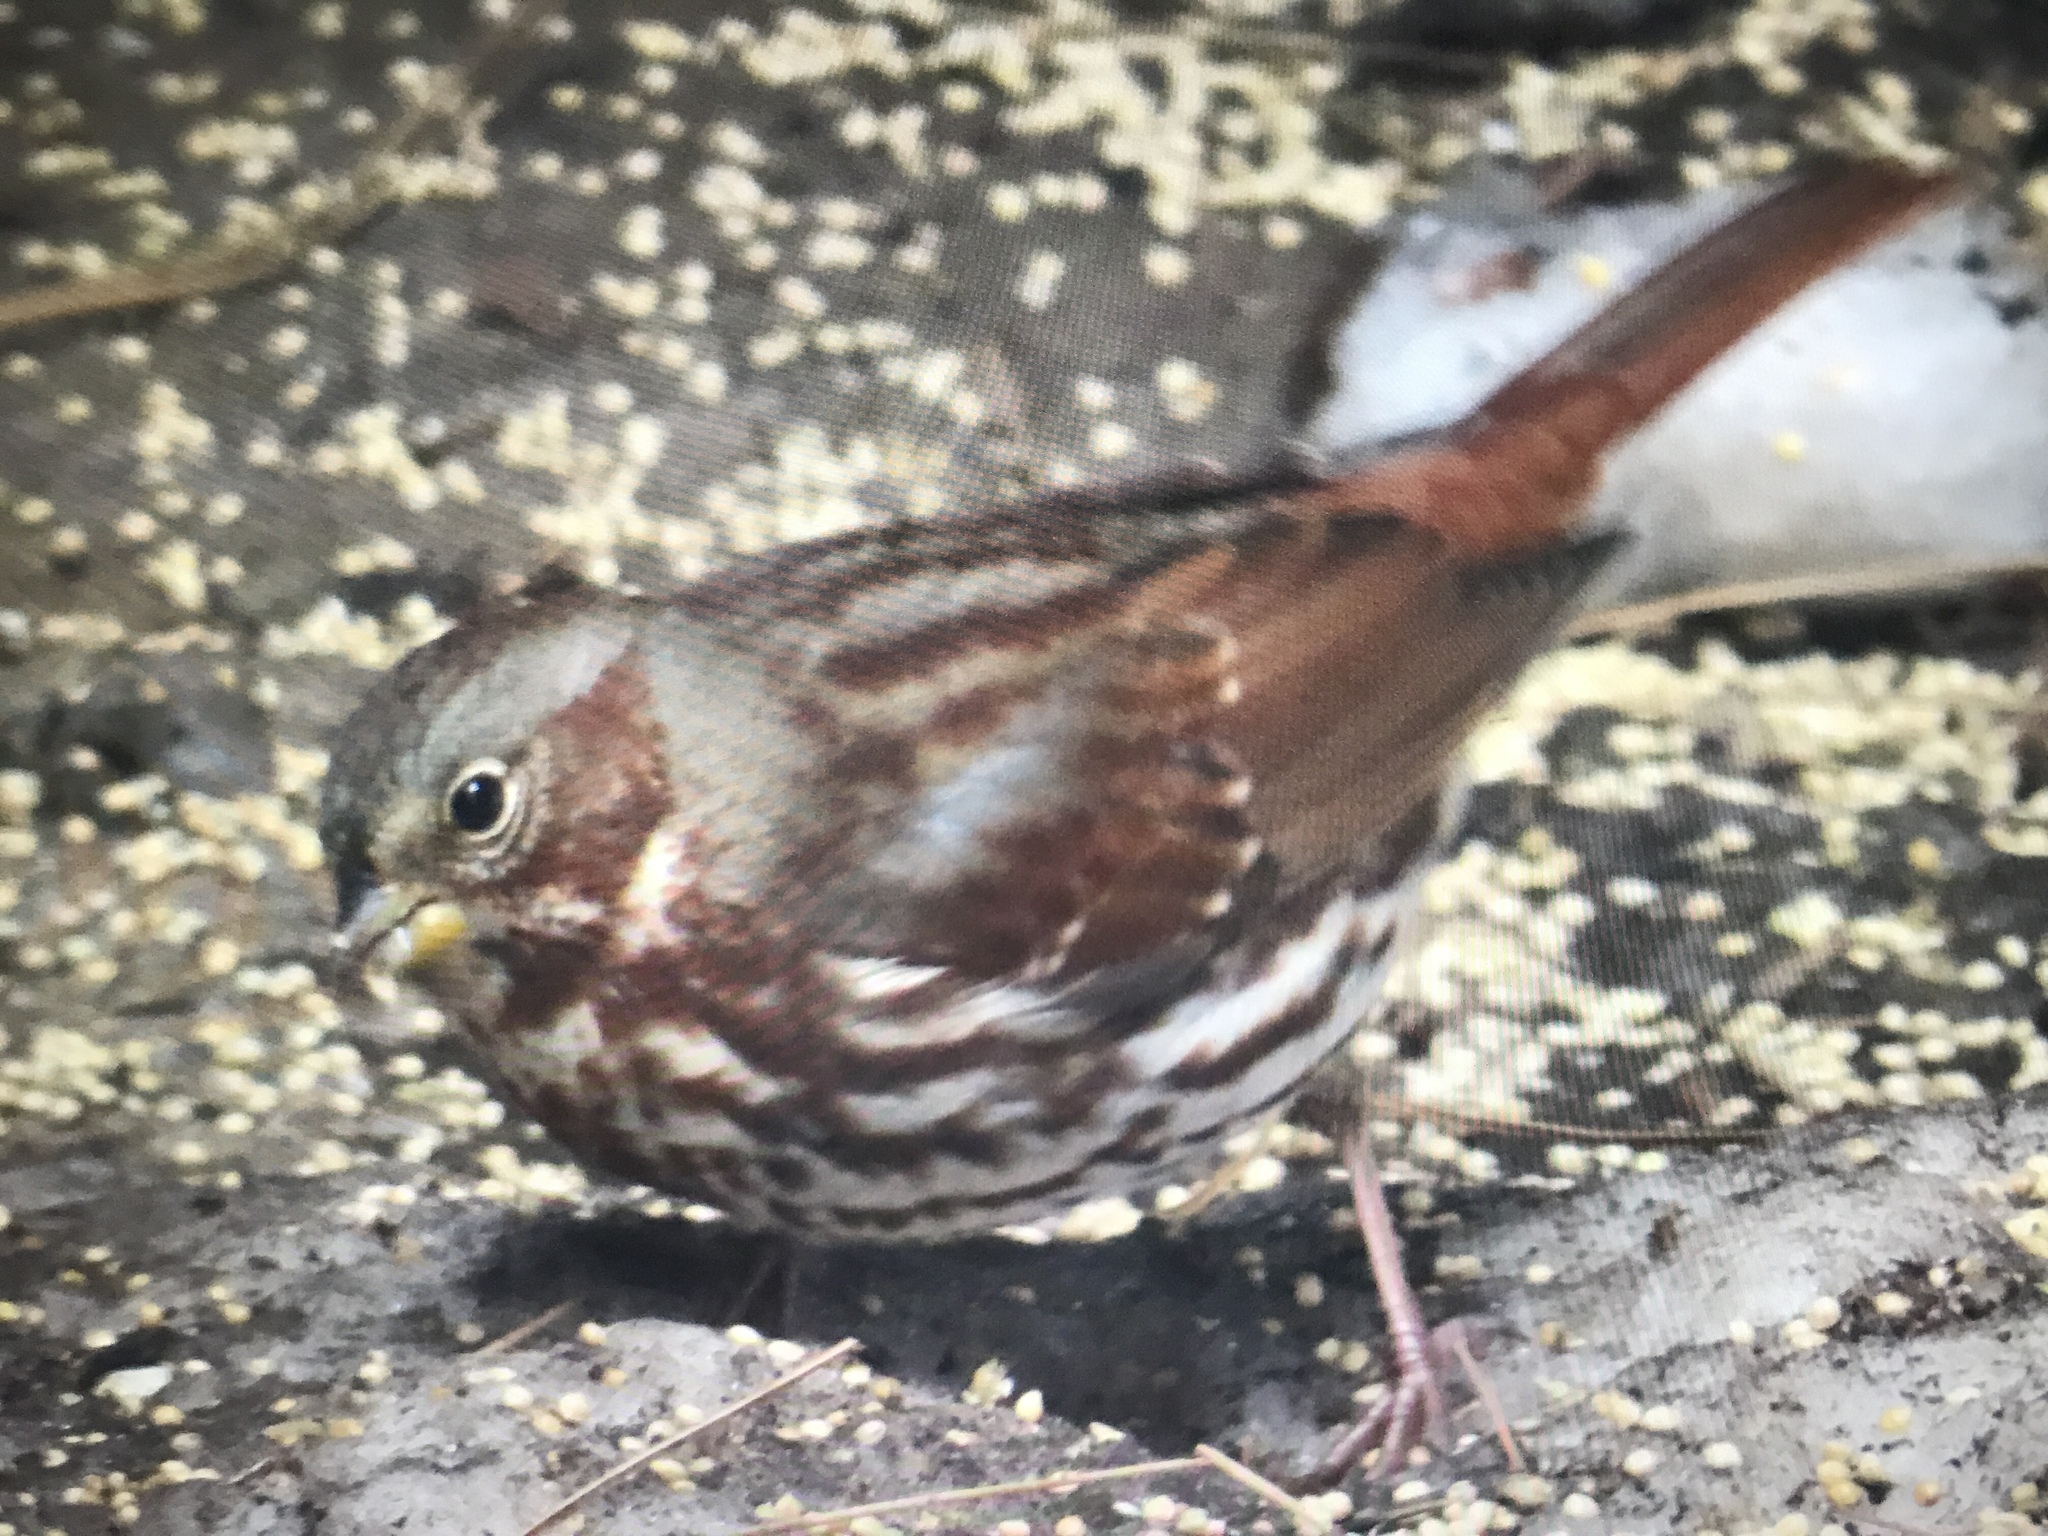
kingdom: Animalia
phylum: Chordata
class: Aves
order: Passeriformes
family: Passerellidae
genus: Passerella
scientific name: Passerella iliaca
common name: Fox sparrow
